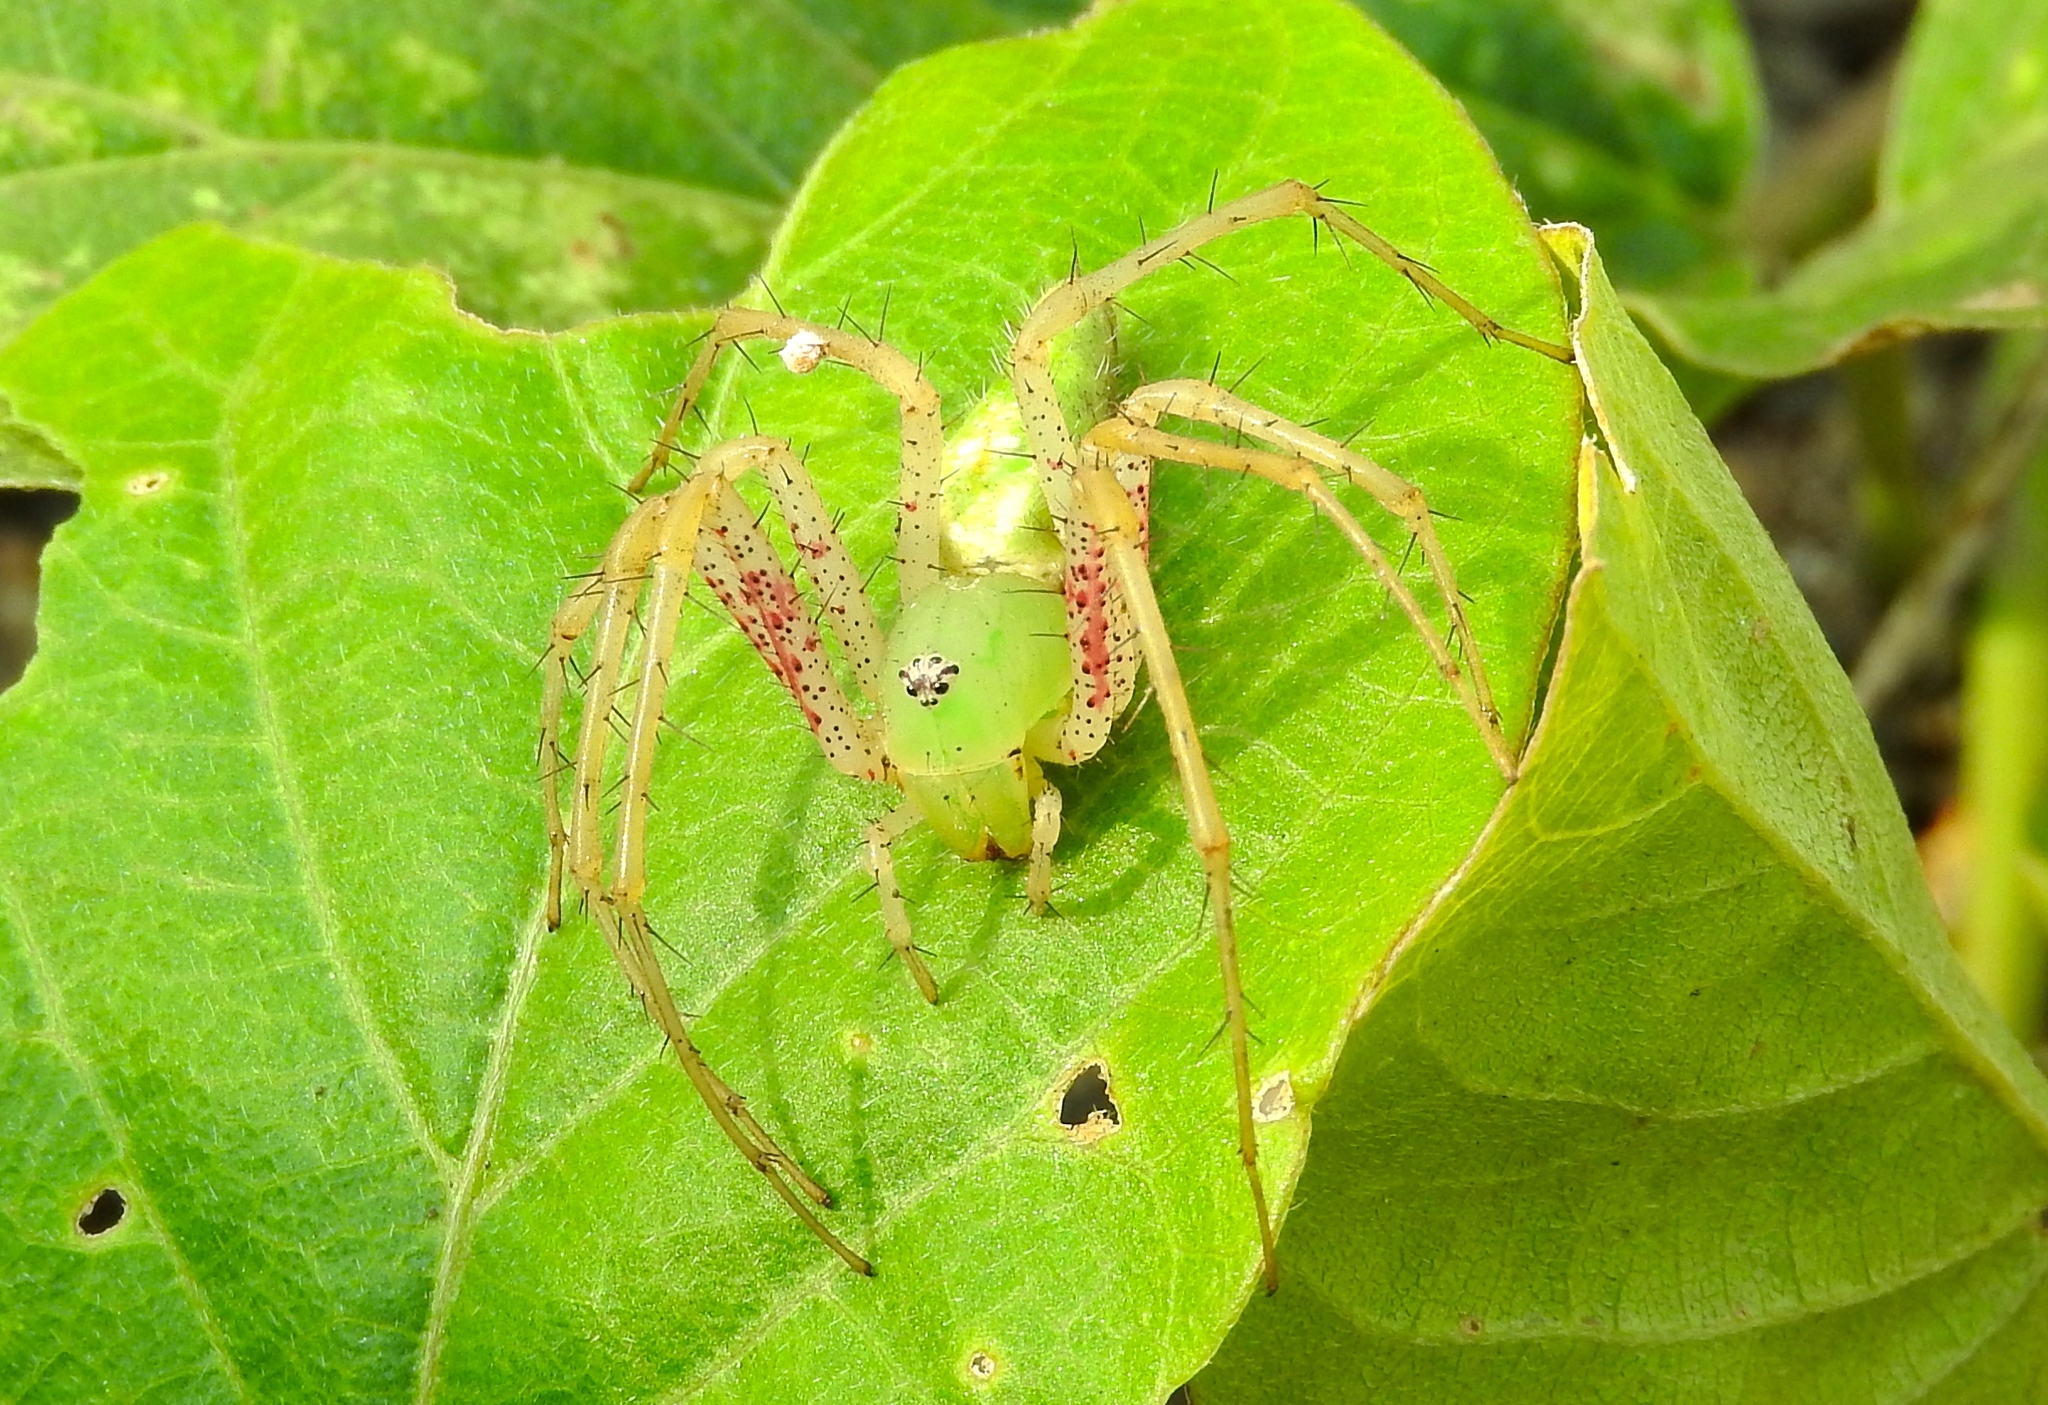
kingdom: Animalia
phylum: Arthropoda
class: Arachnida
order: Araneae
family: Oxyopidae
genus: Peucetia
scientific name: Peucetia viridans
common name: Lynx spiders
